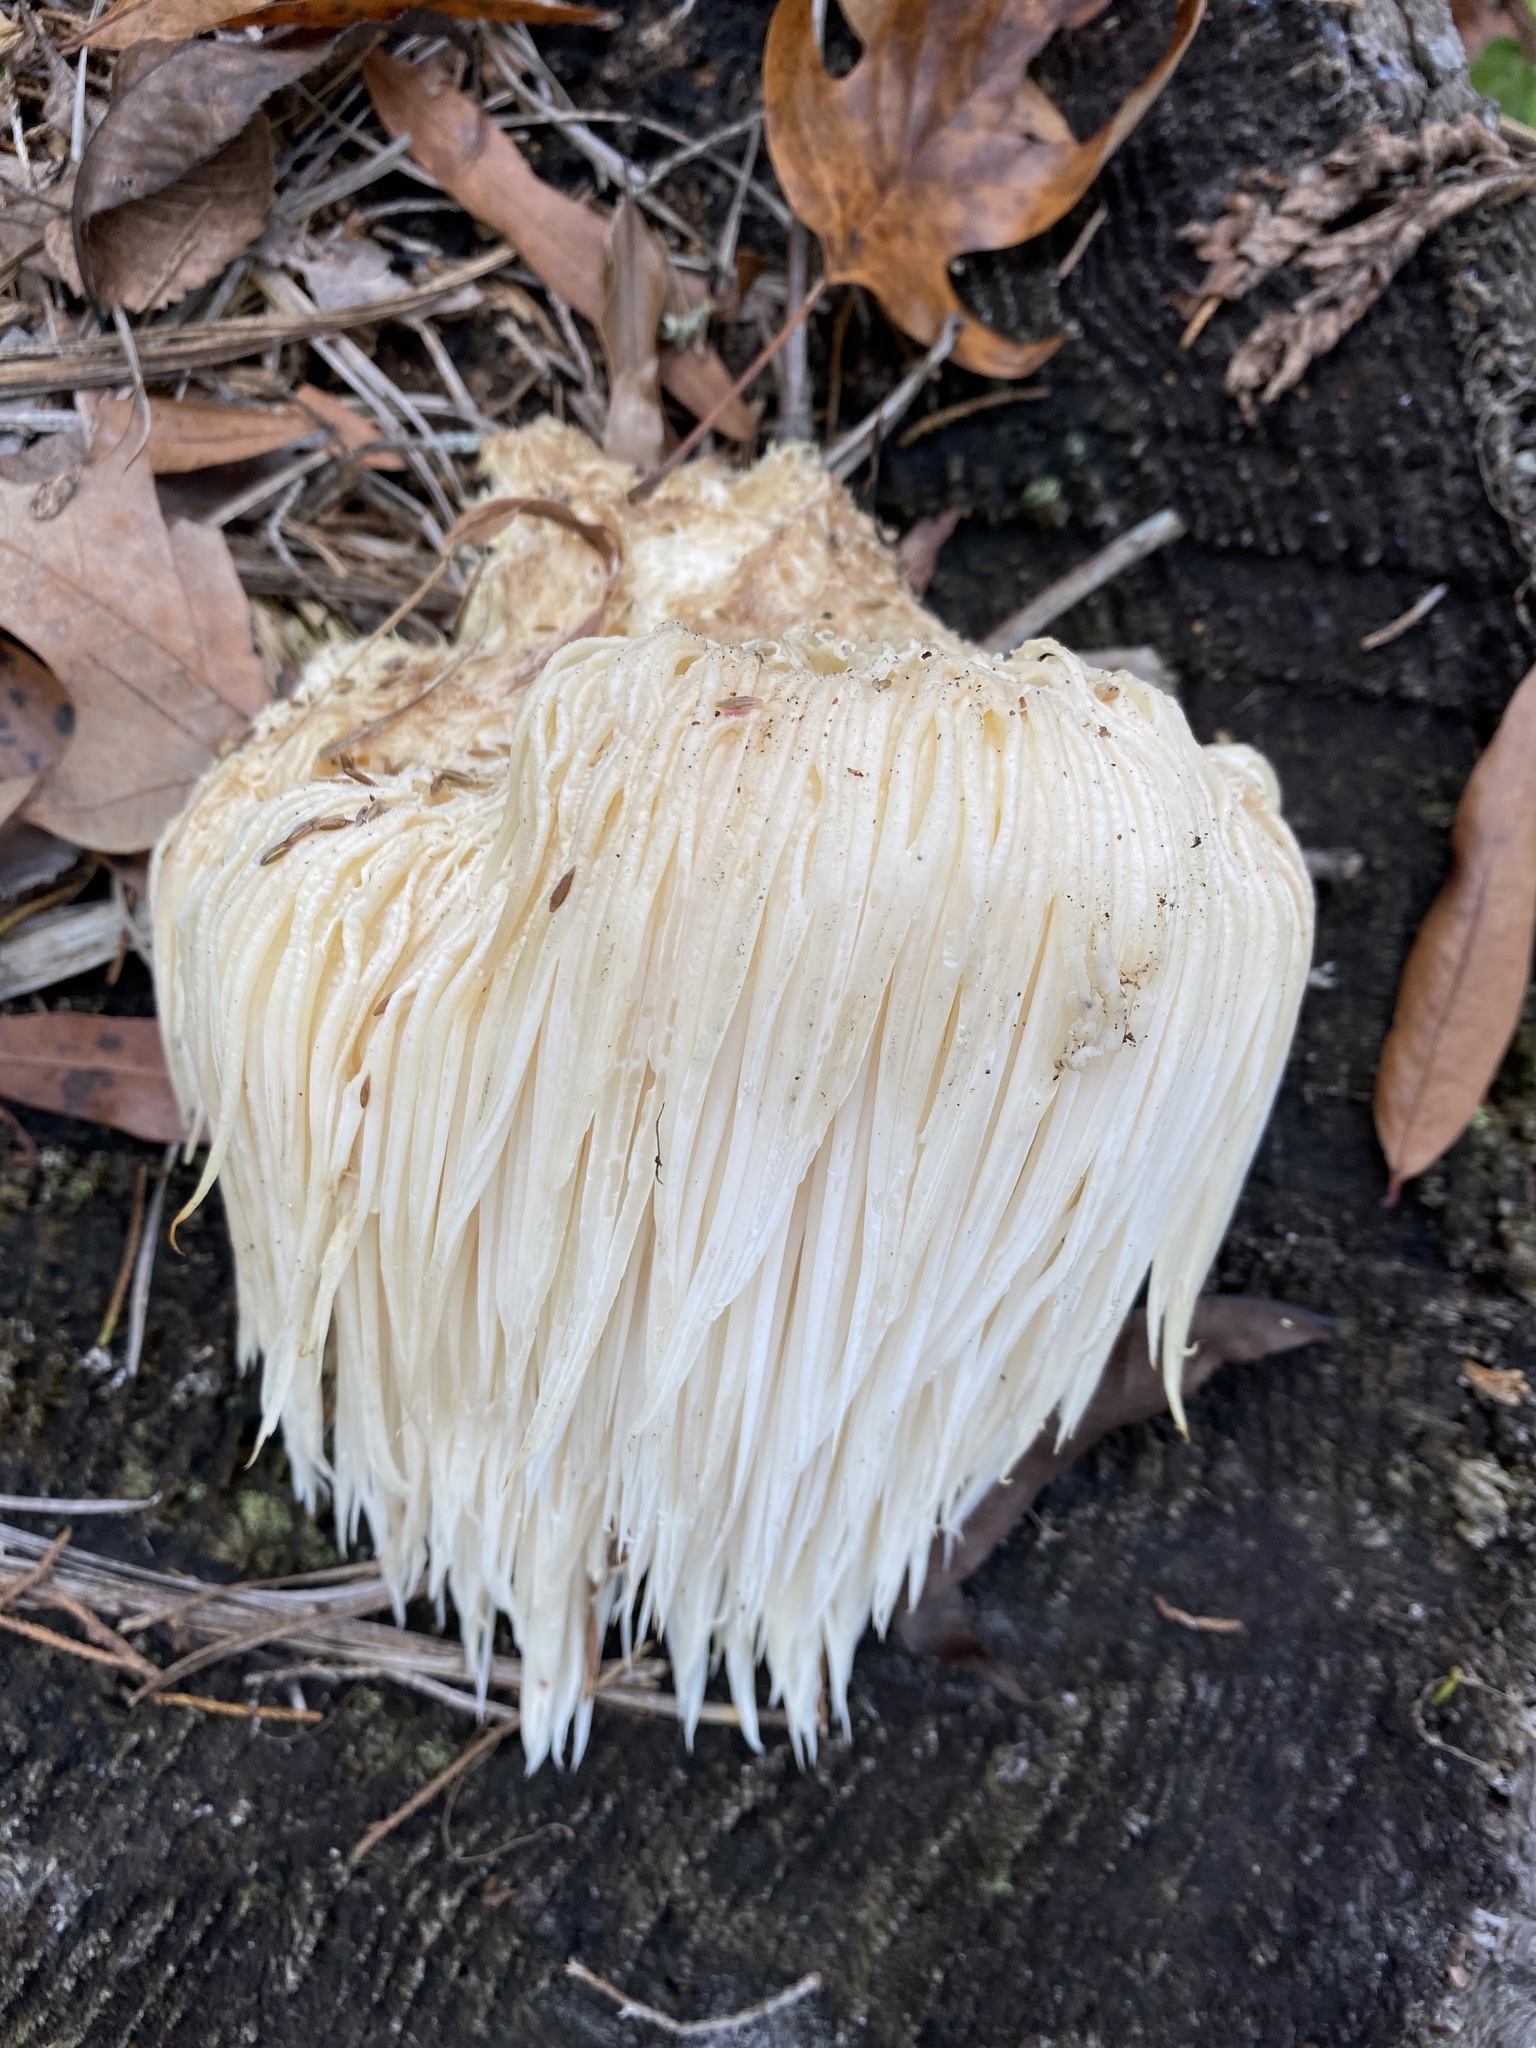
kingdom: Fungi
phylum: Basidiomycota
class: Agaricomycetes
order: Russulales
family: Hericiaceae
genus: Hericium
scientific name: Hericium erinaceus
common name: Bearded tooth
